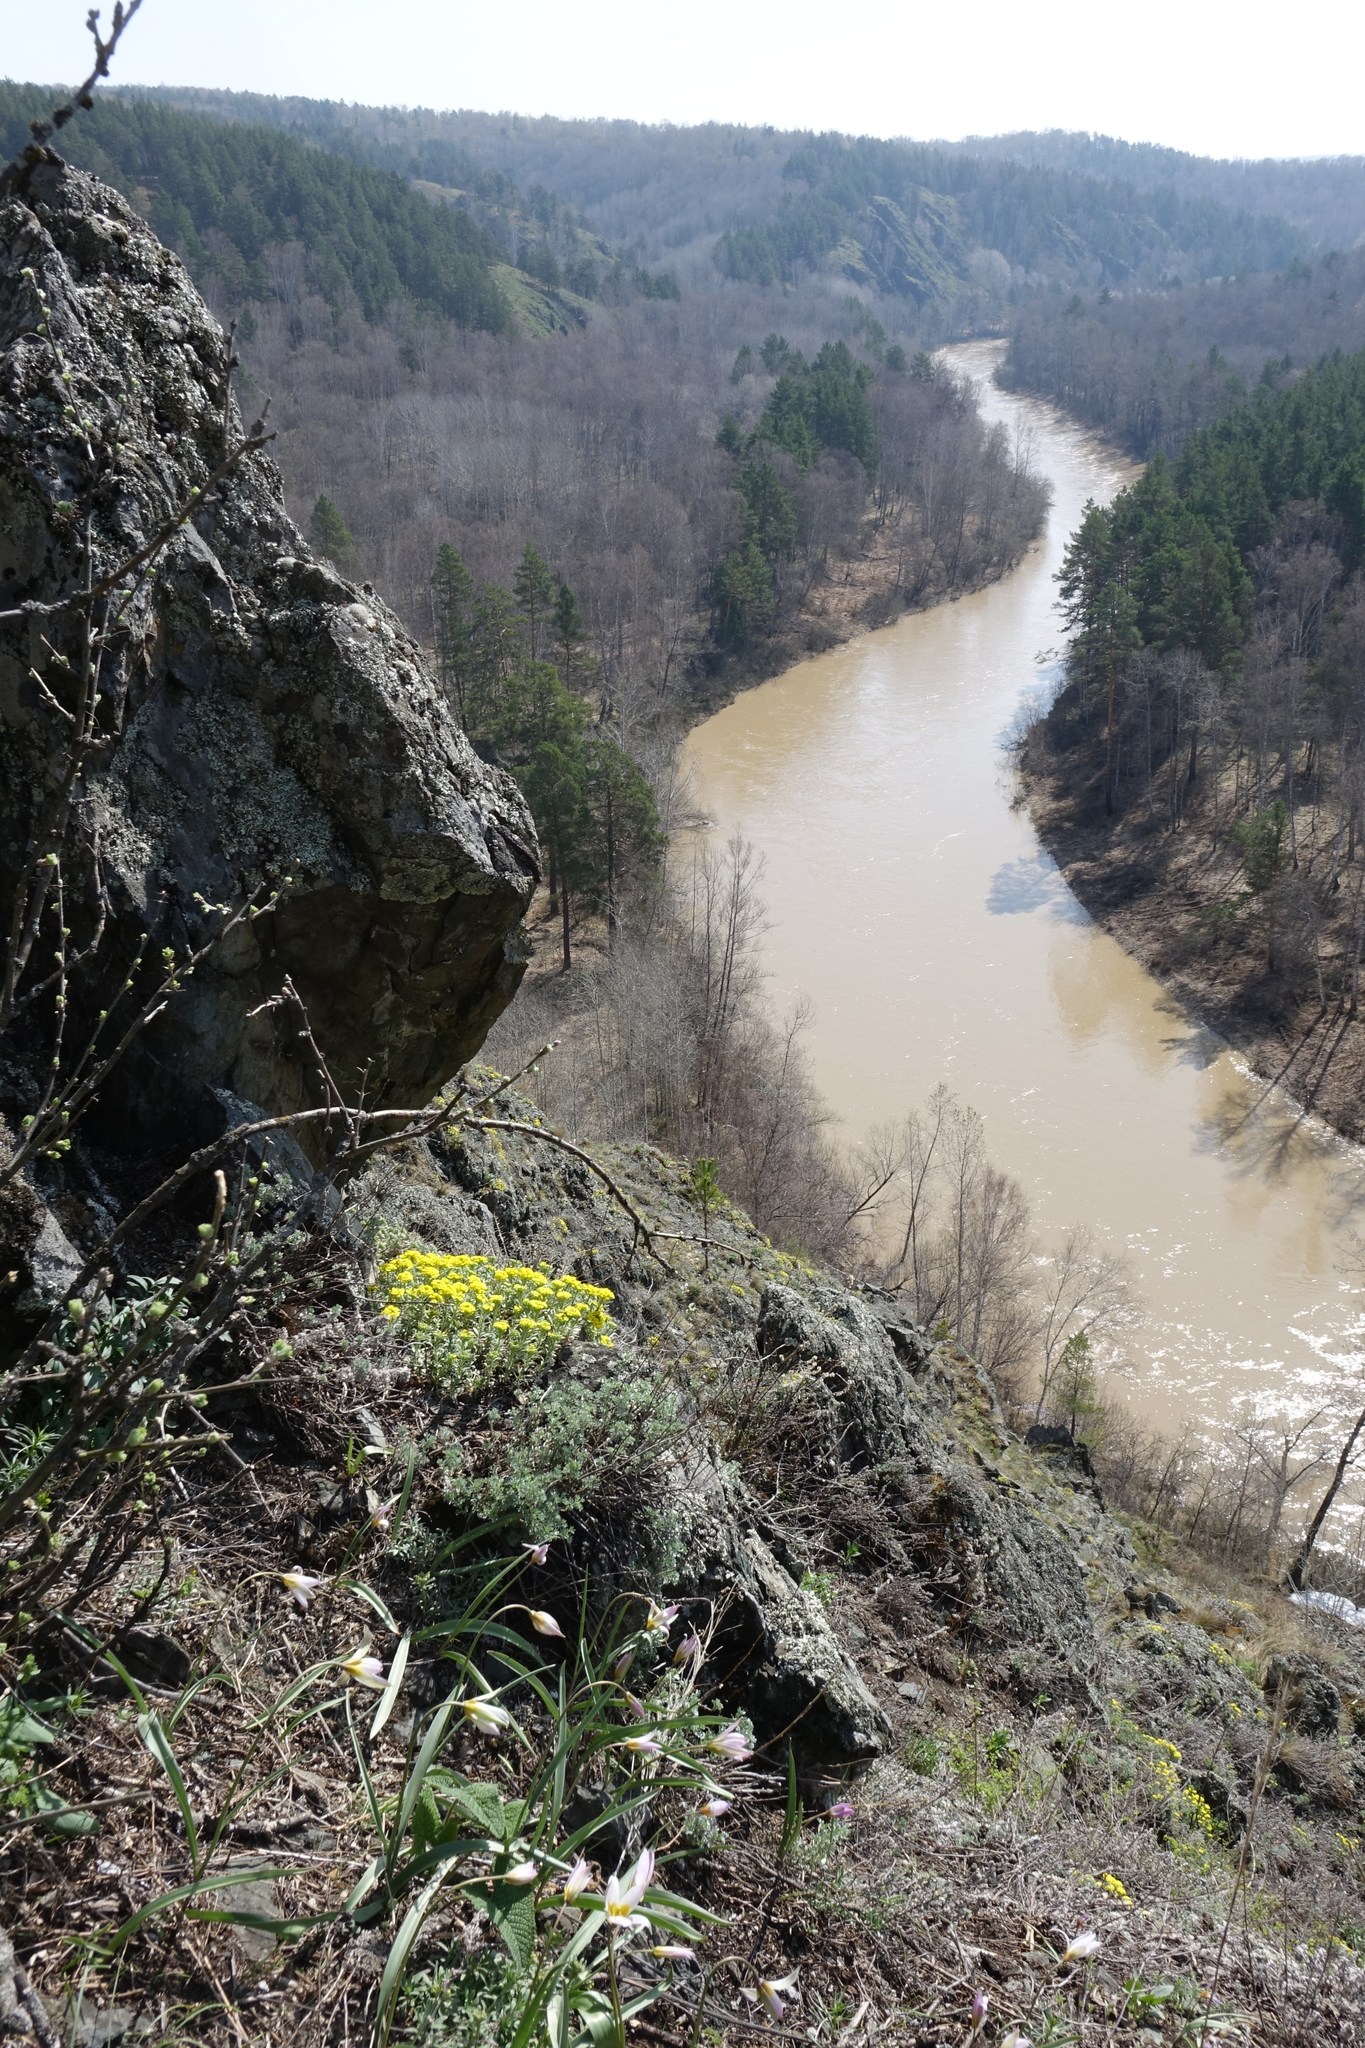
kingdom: Plantae
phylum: Tracheophyta
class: Magnoliopsida
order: Brassicales
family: Brassicaceae
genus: Alyssum
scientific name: Alyssum lenense
